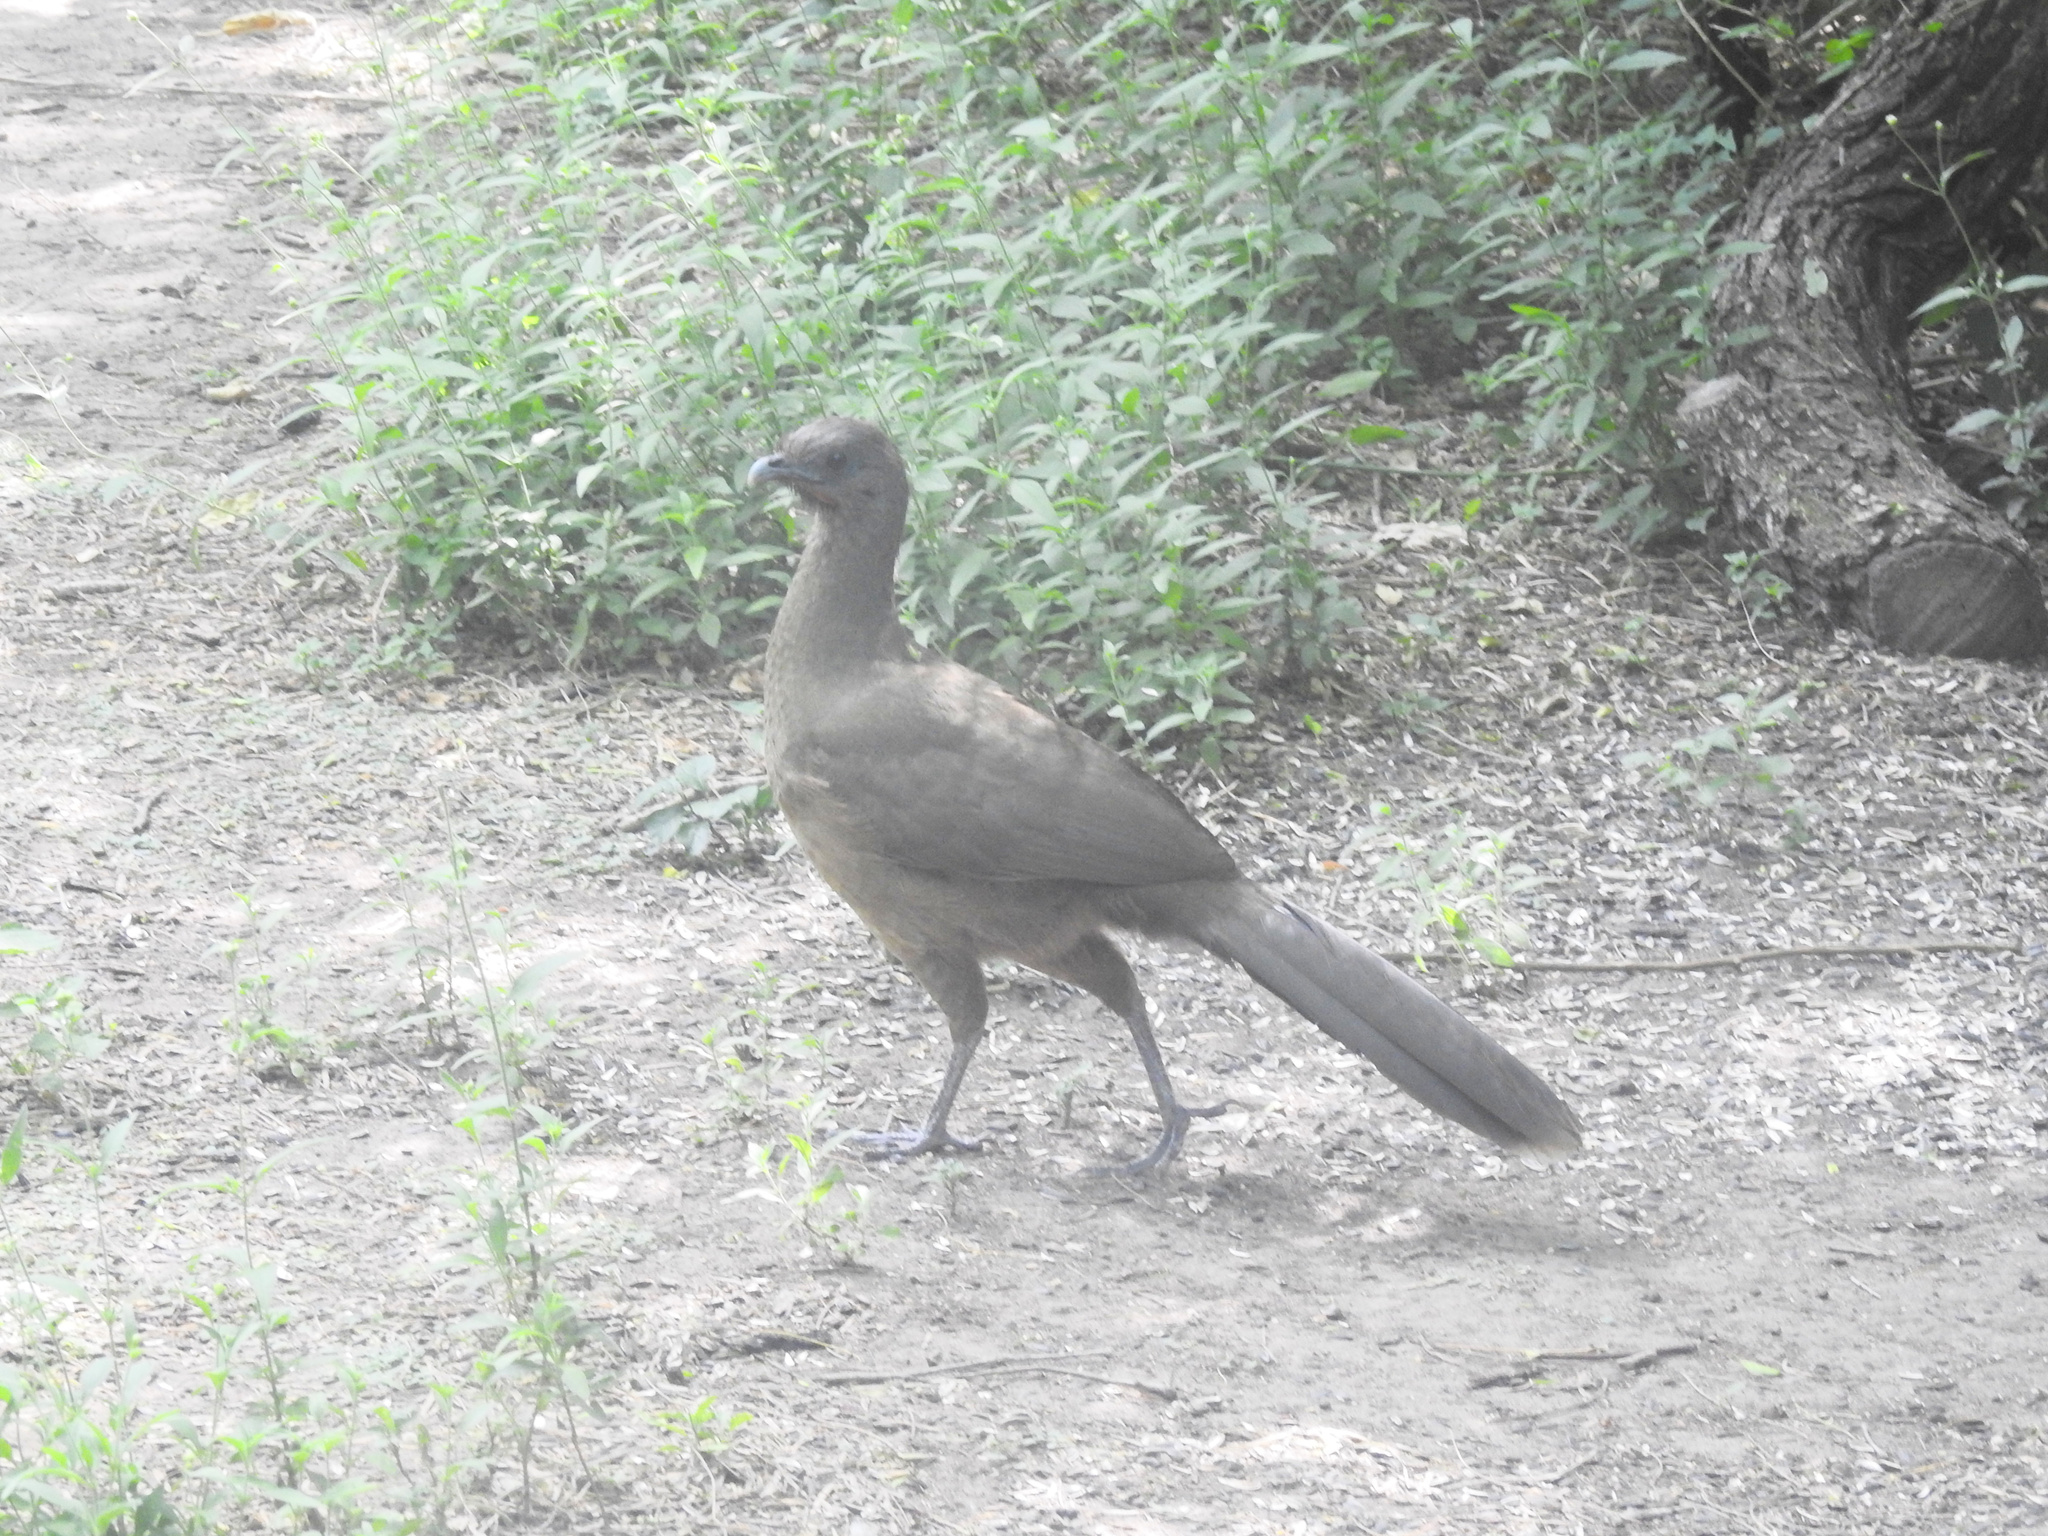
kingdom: Animalia
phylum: Chordata
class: Aves
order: Galliformes
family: Cracidae
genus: Ortalis
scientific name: Ortalis vetula
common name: Plain chachalaca
